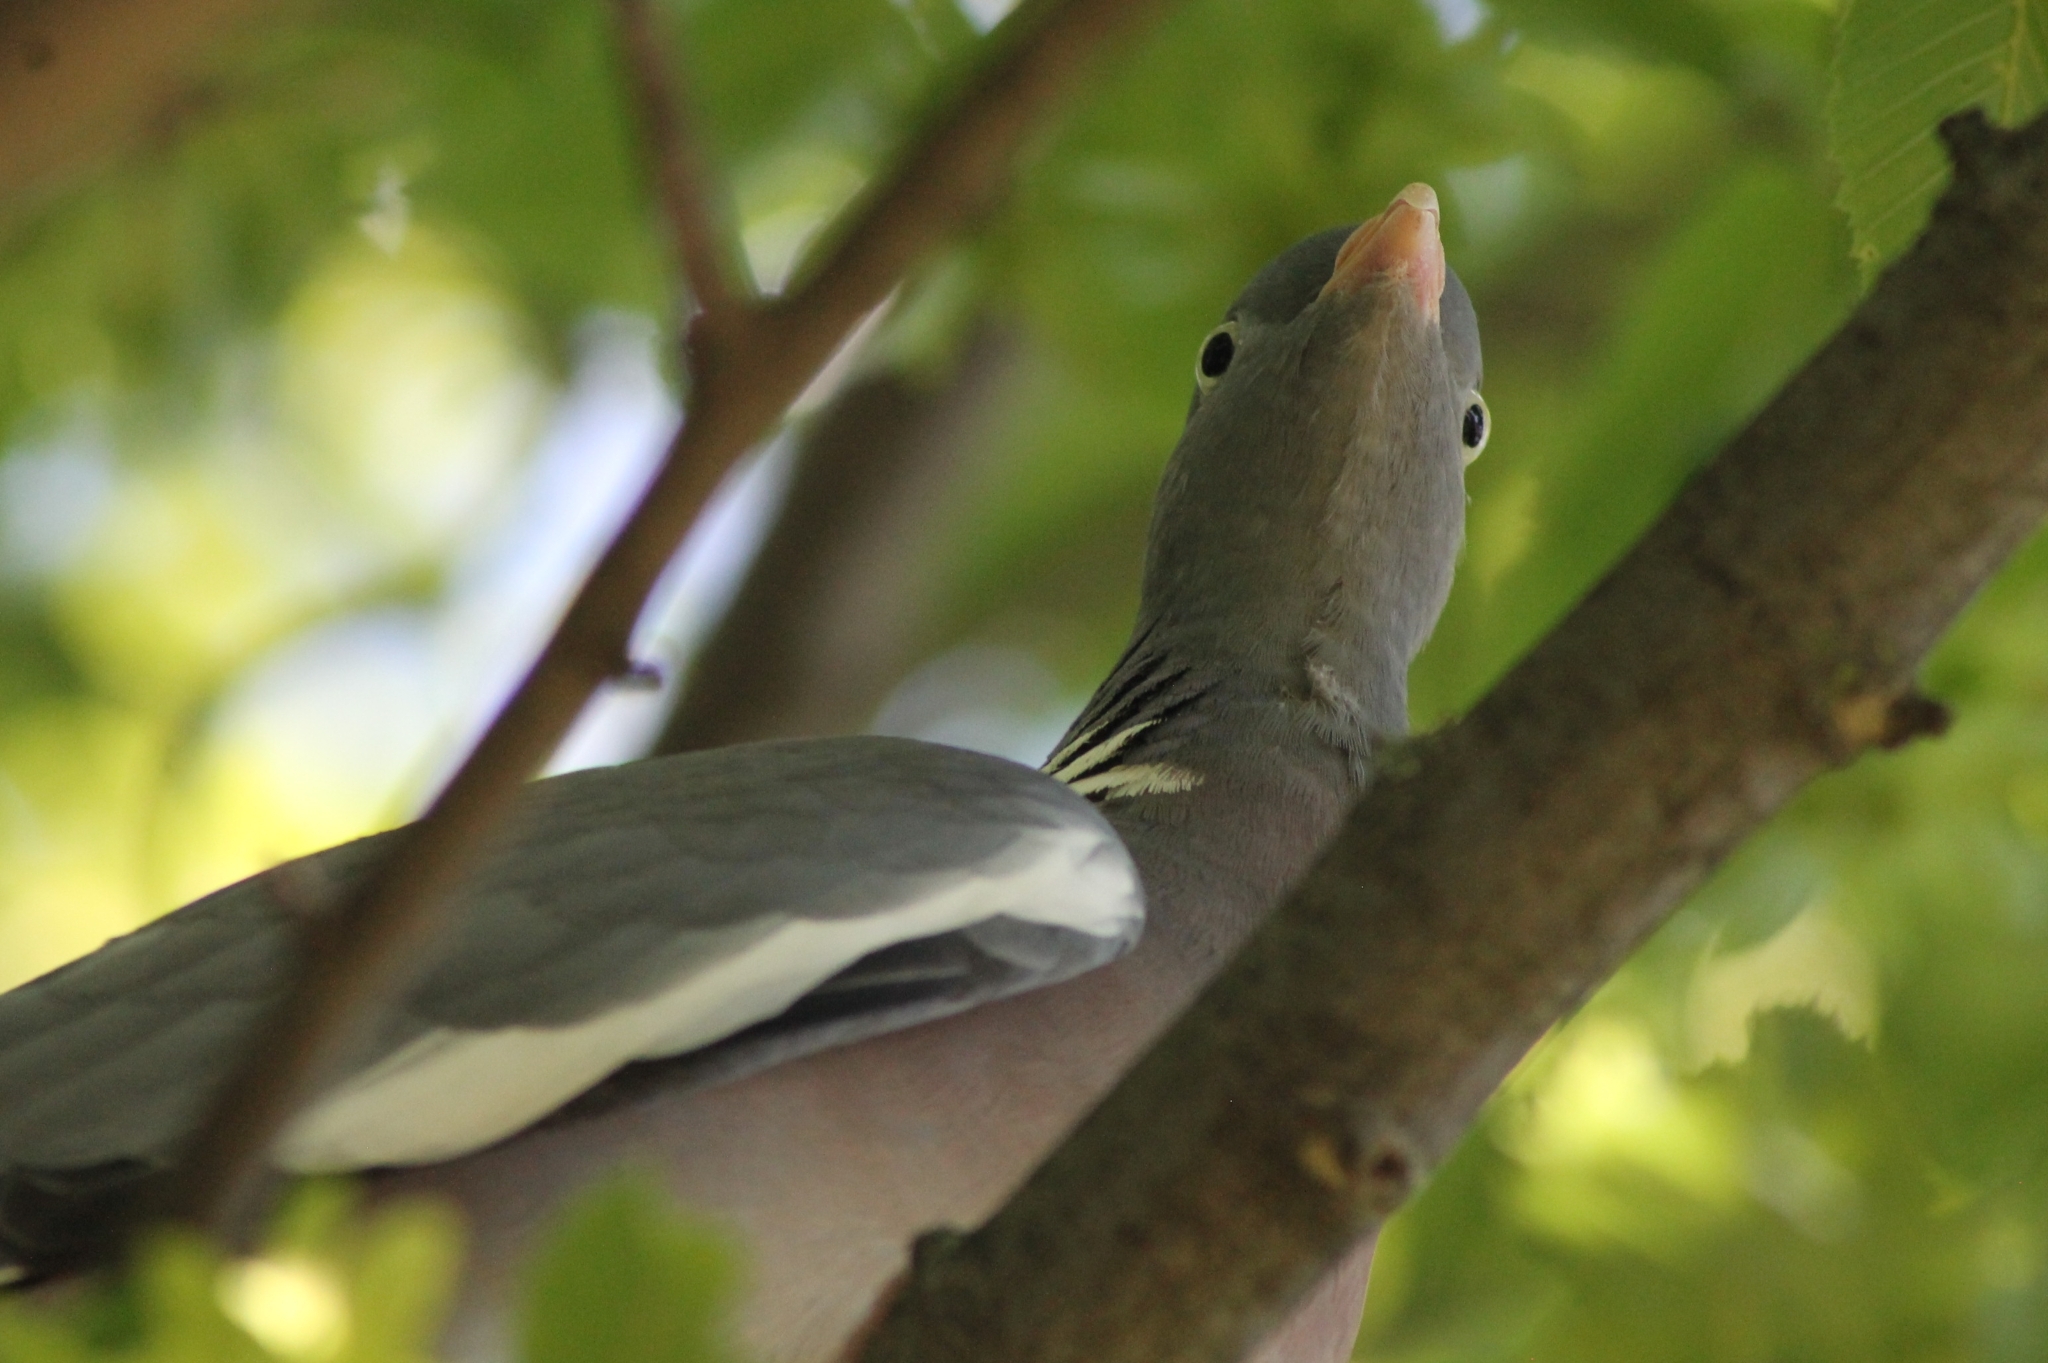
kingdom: Animalia
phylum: Chordata
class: Aves
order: Columbiformes
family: Columbidae
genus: Columba
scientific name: Columba palumbus
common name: Common wood pigeon
